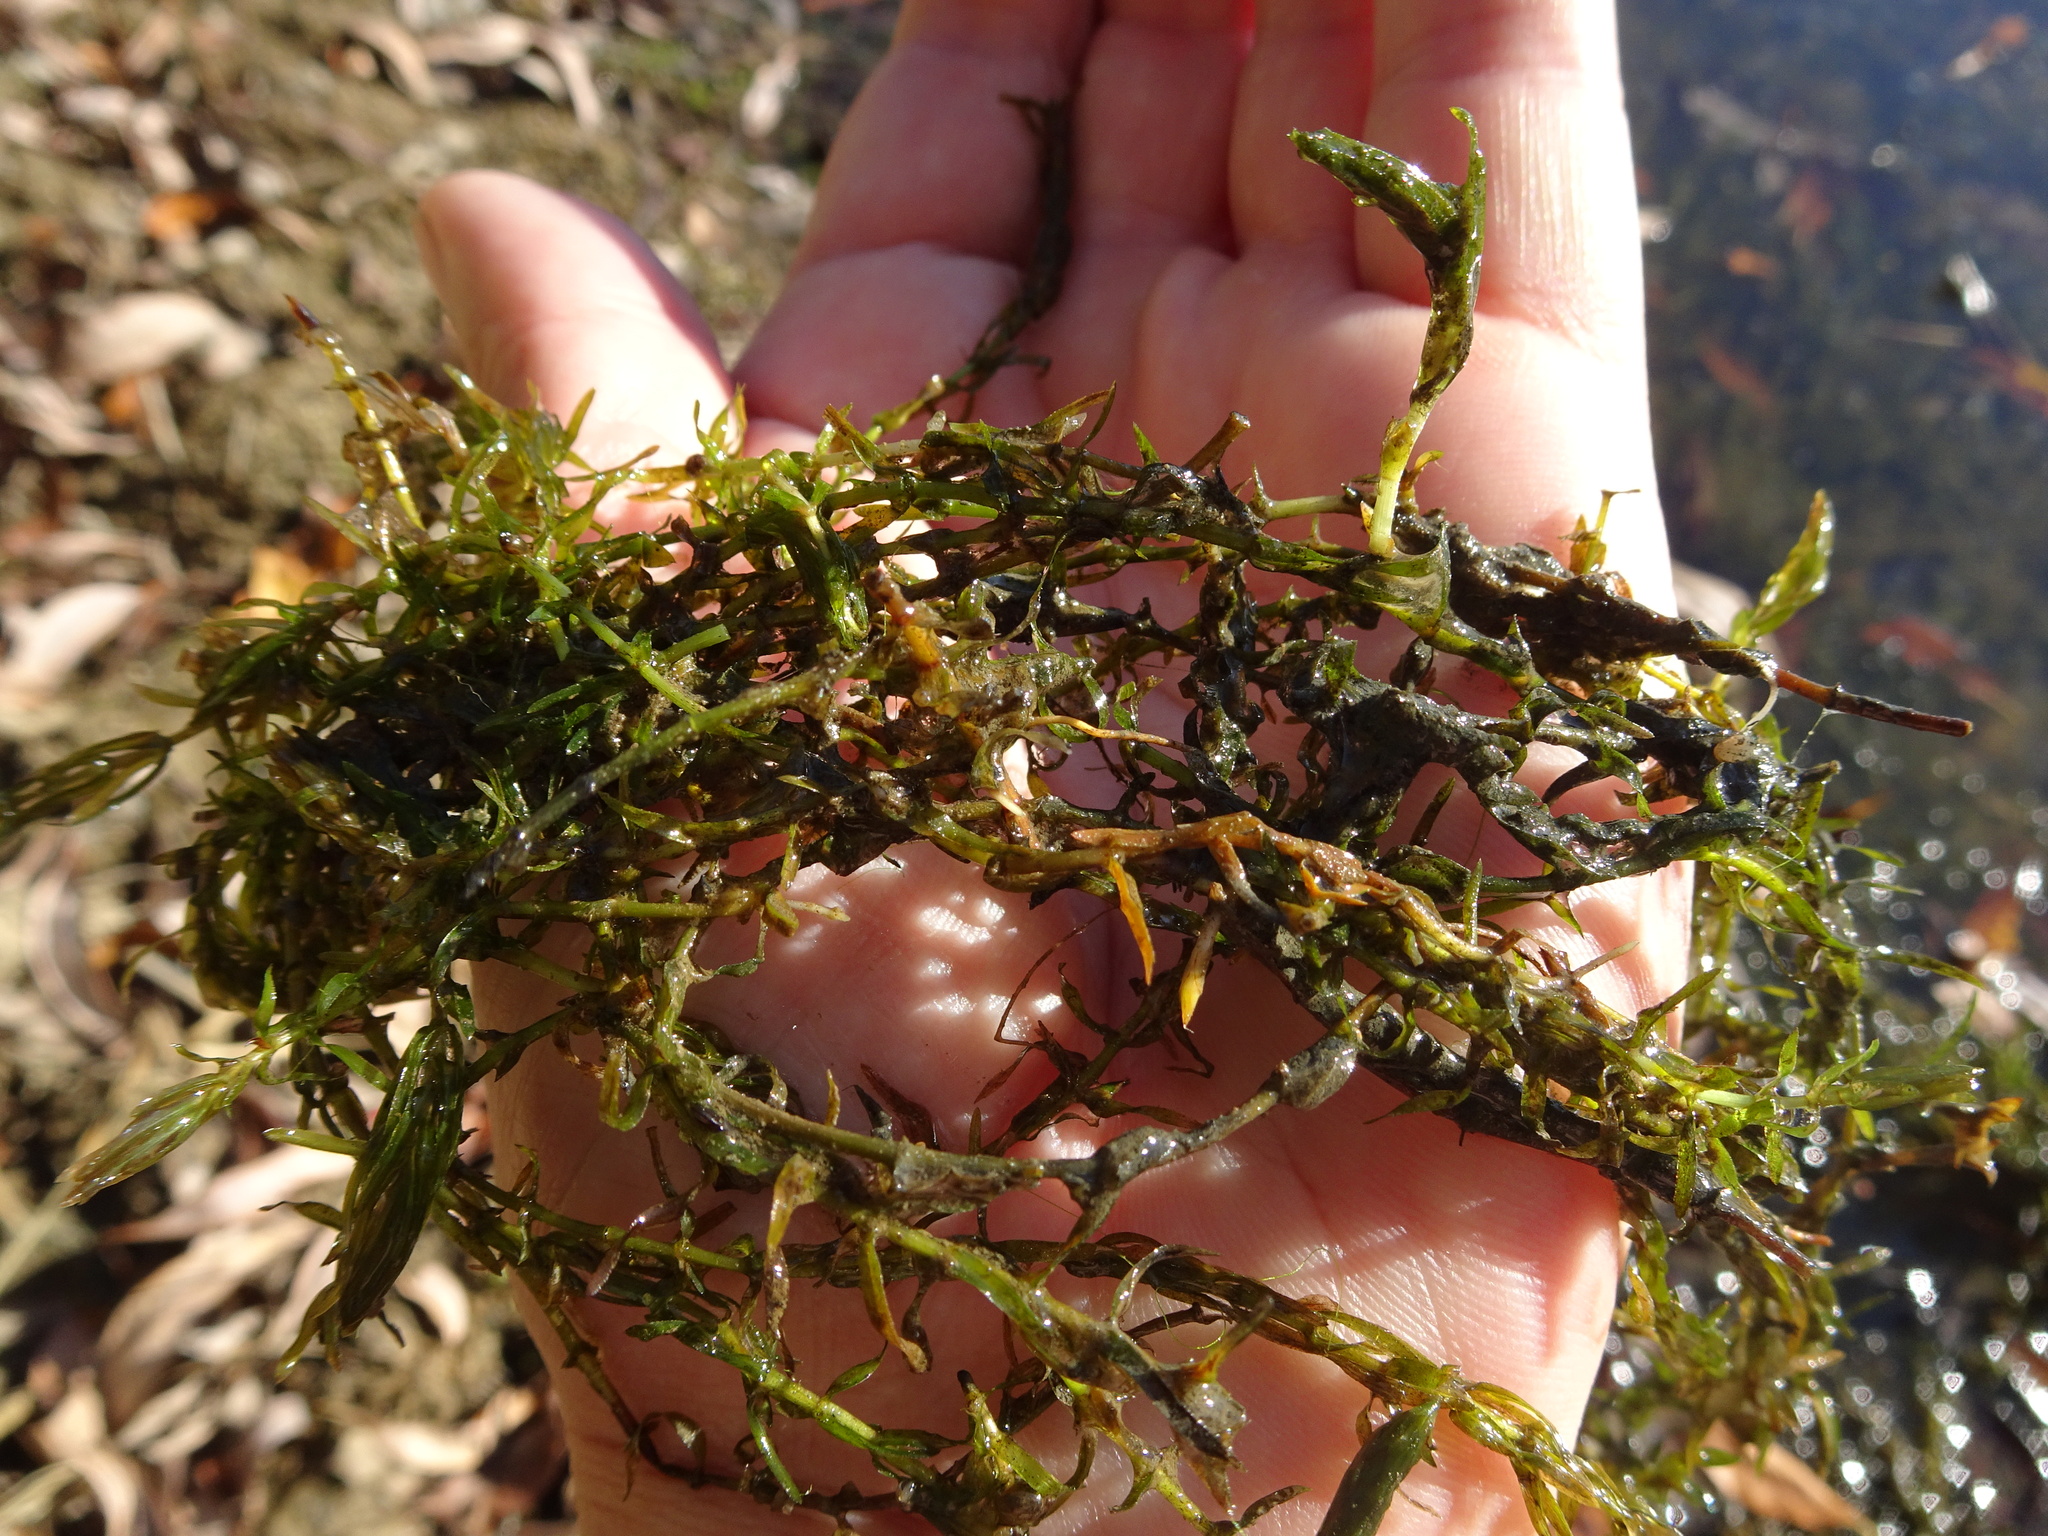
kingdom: Plantae
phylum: Tracheophyta
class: Liliopsida
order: Alismatales
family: Hydrocharitaceae
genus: Elodea
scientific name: Elodea nuttallii
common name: Nuttall's waterweed
